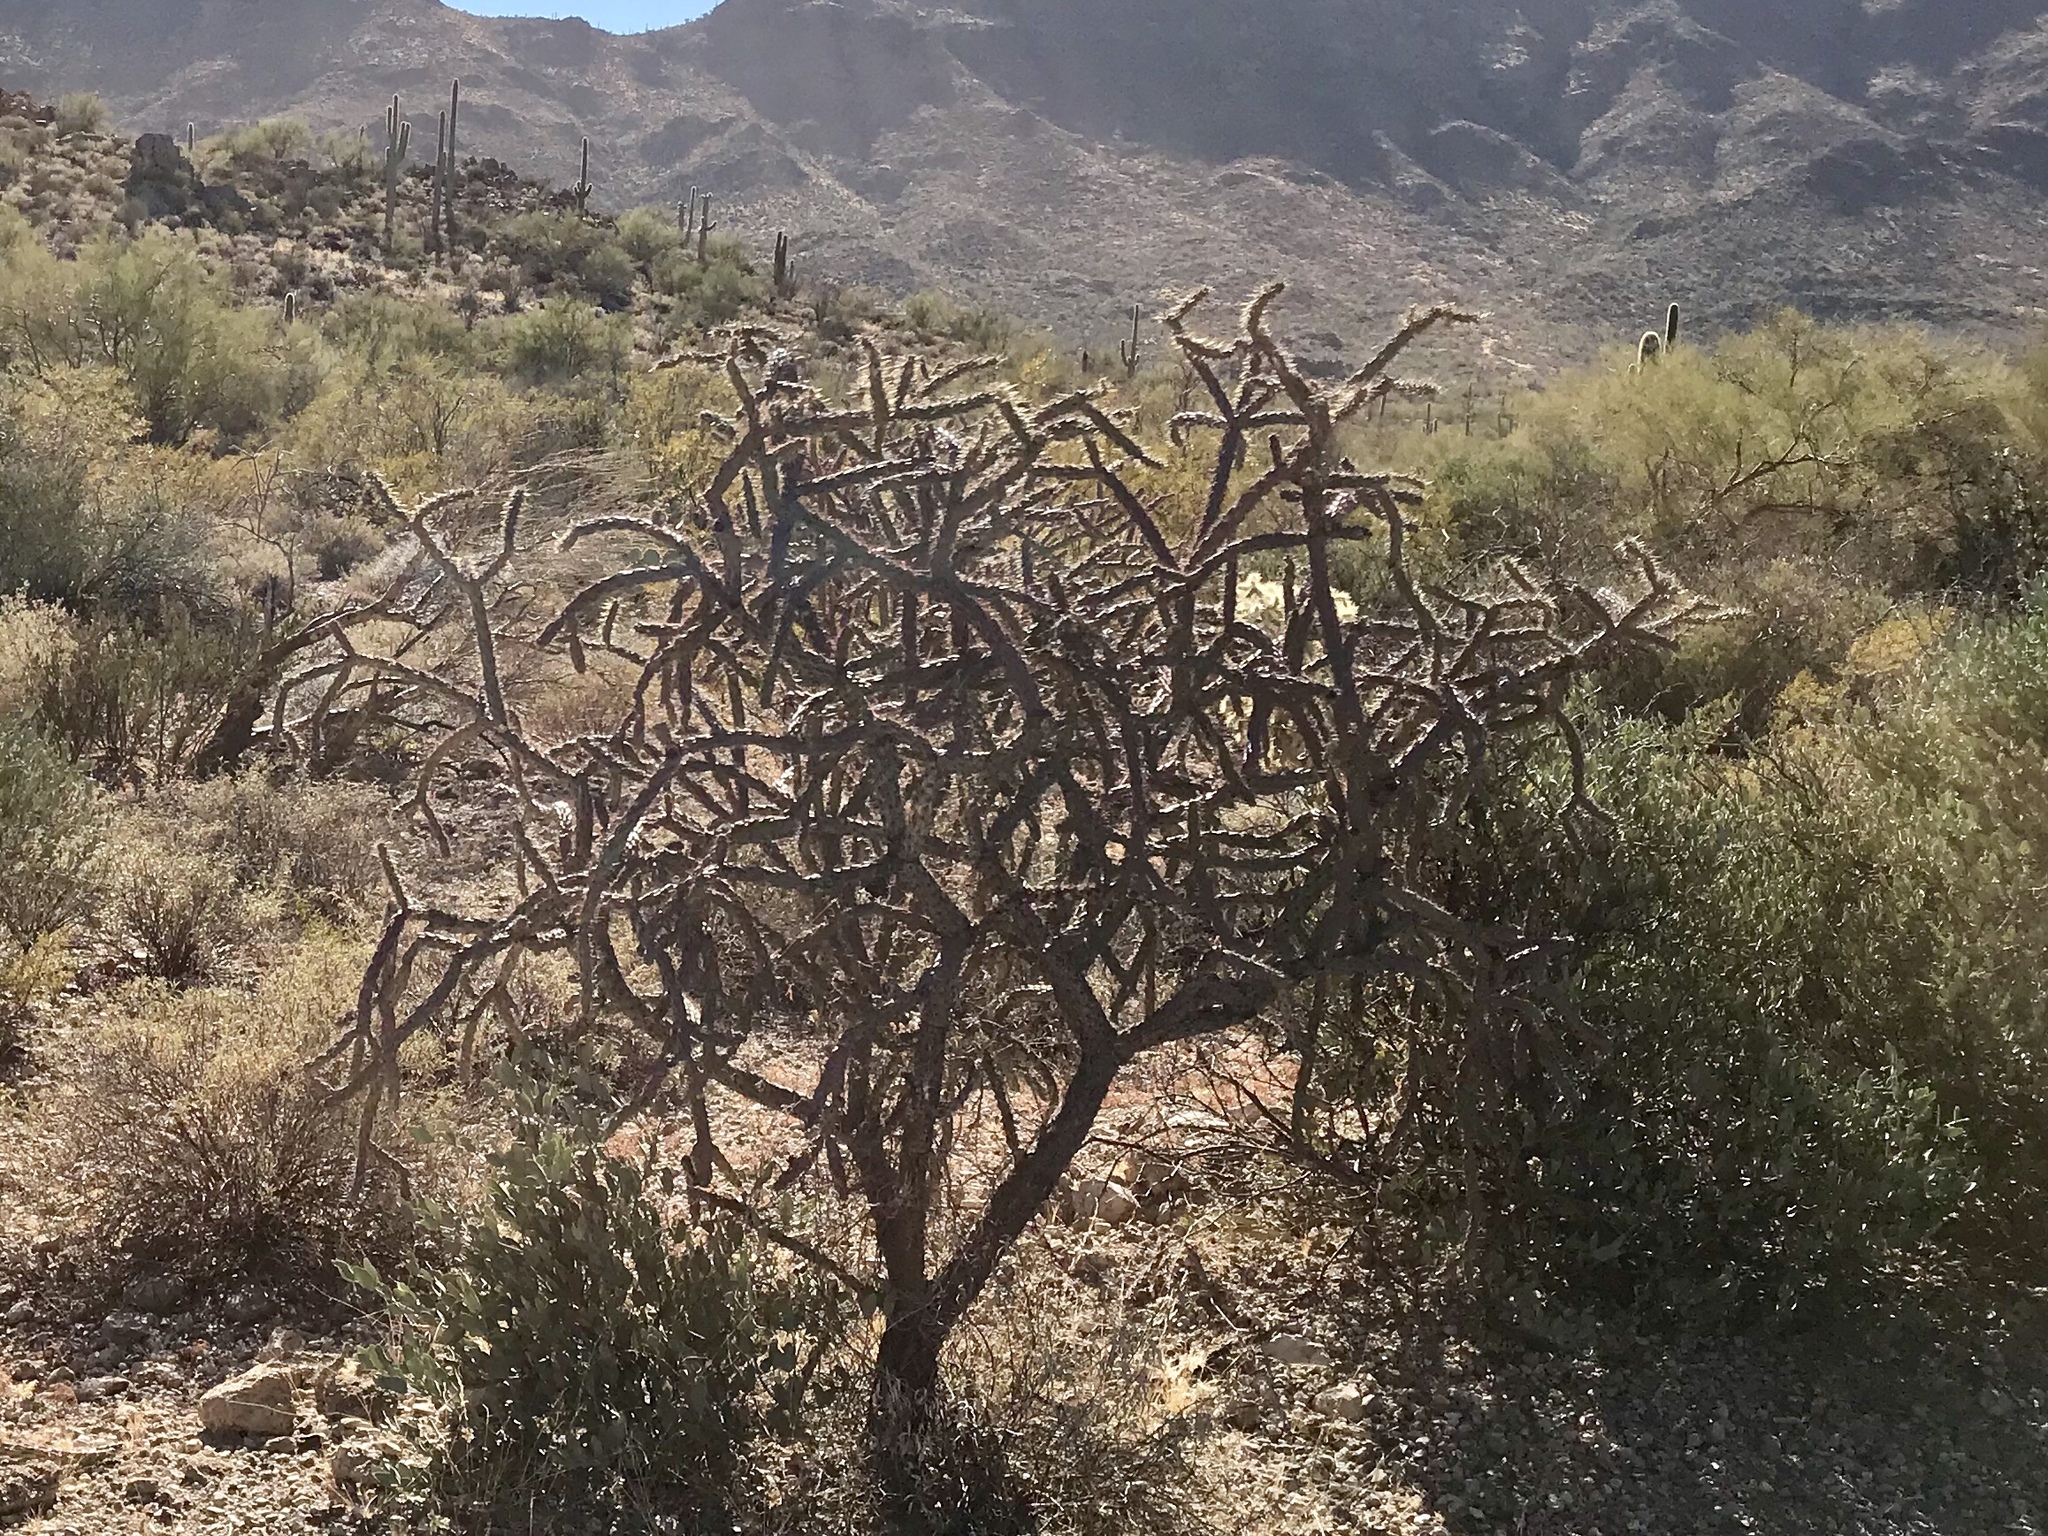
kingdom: Plantae
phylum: Tracheophyta
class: Magnoliopsida
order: Caryophyllales
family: Cactaceae
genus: Cylindropuntia
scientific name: Cylindropuntia thurberi
